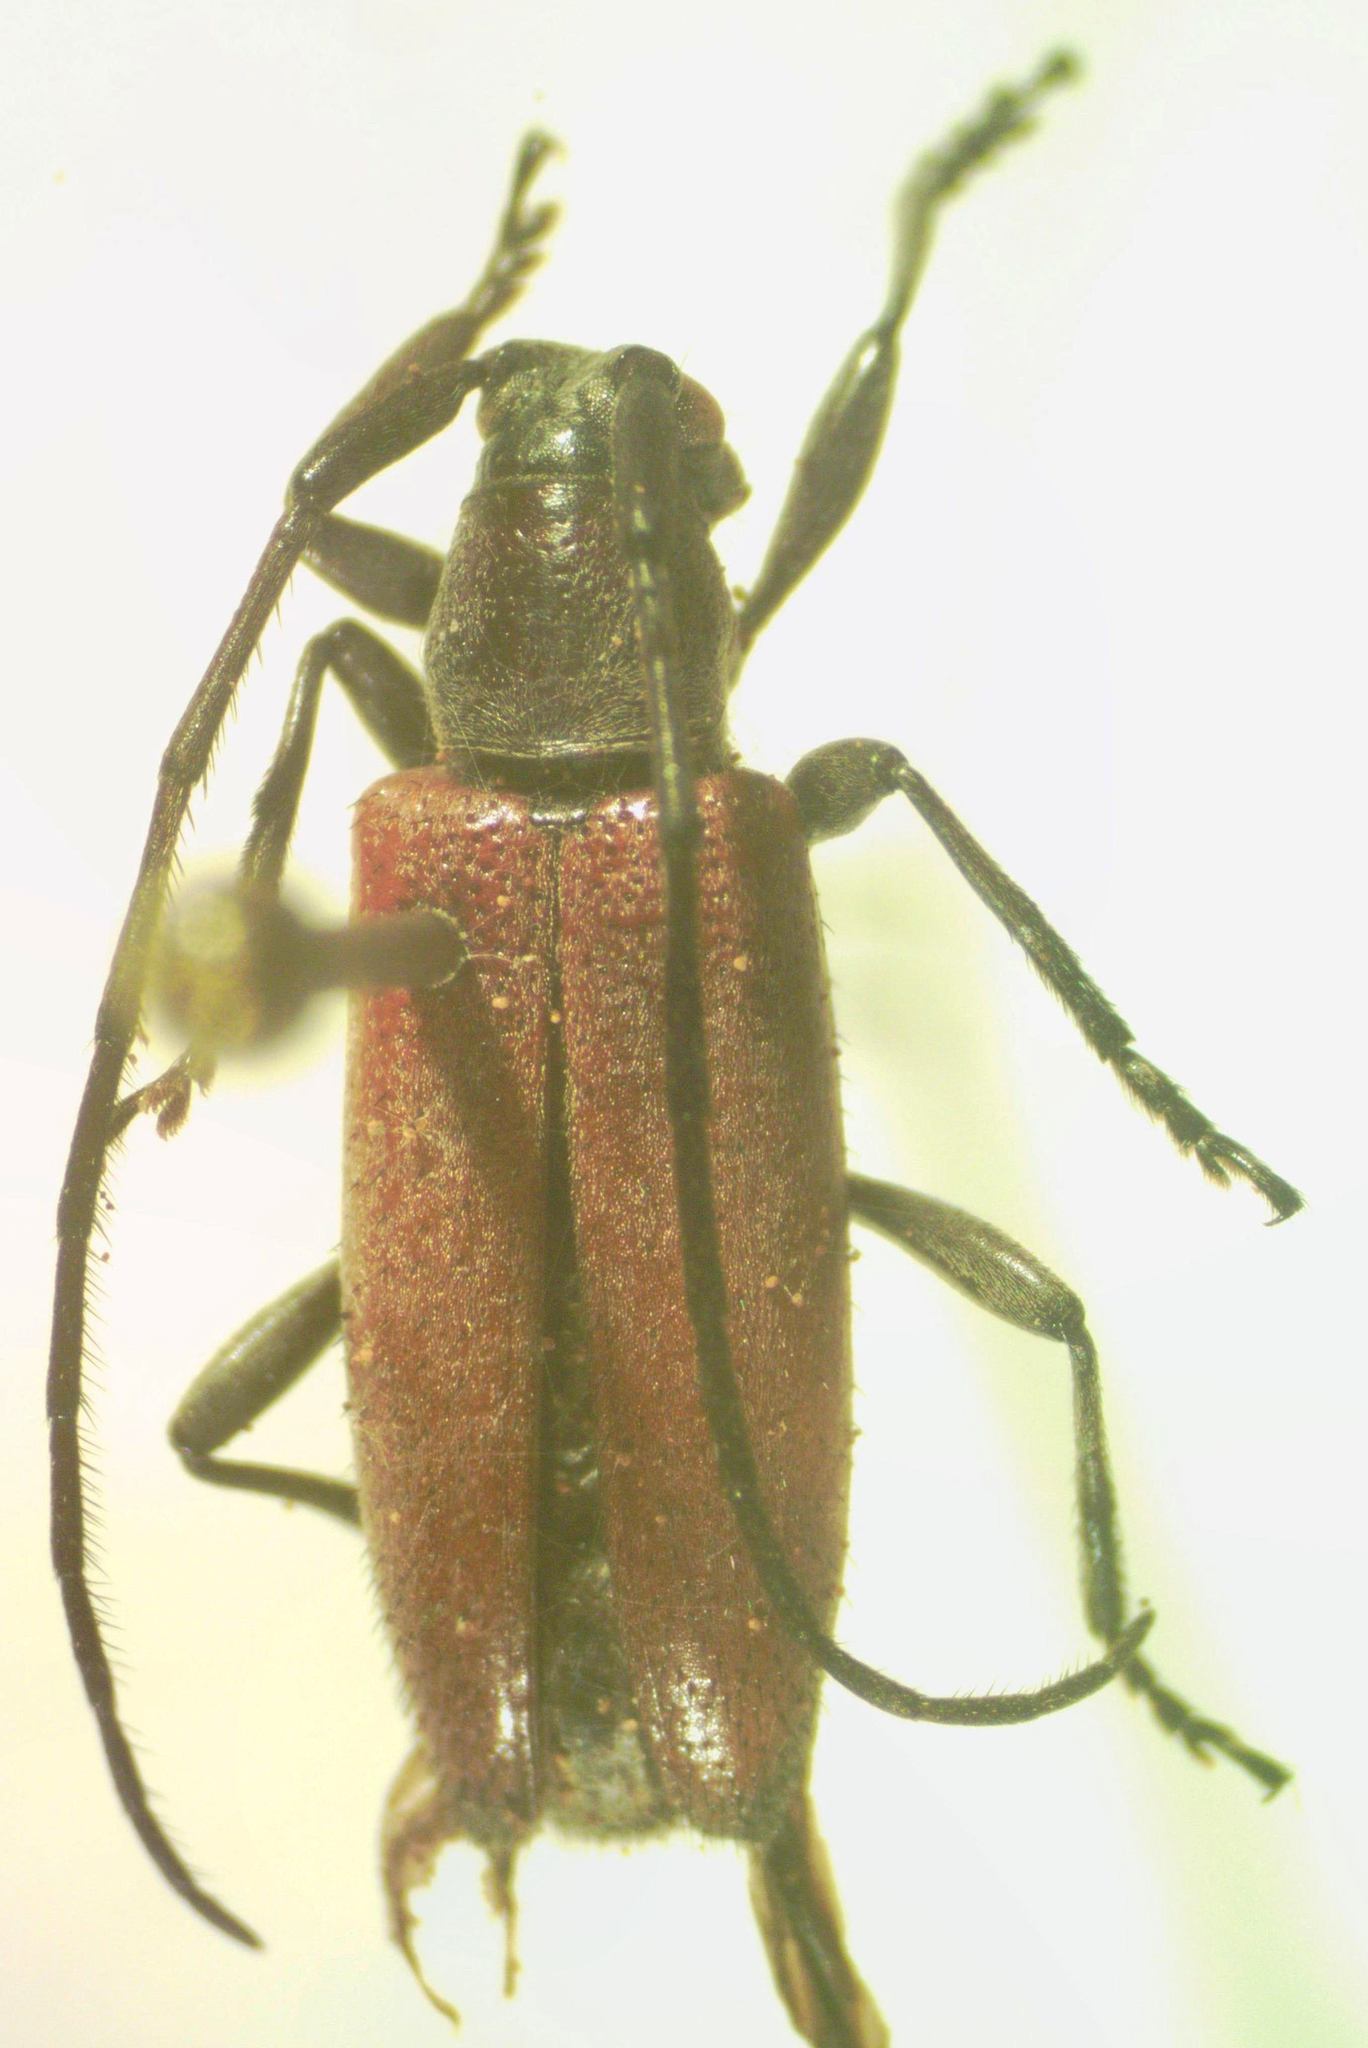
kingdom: Animalia
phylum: Arthropoda
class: Insecta
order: Coleoptera
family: Cerambycidae
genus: Cymatonycha
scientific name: Cymatonycha castanea
